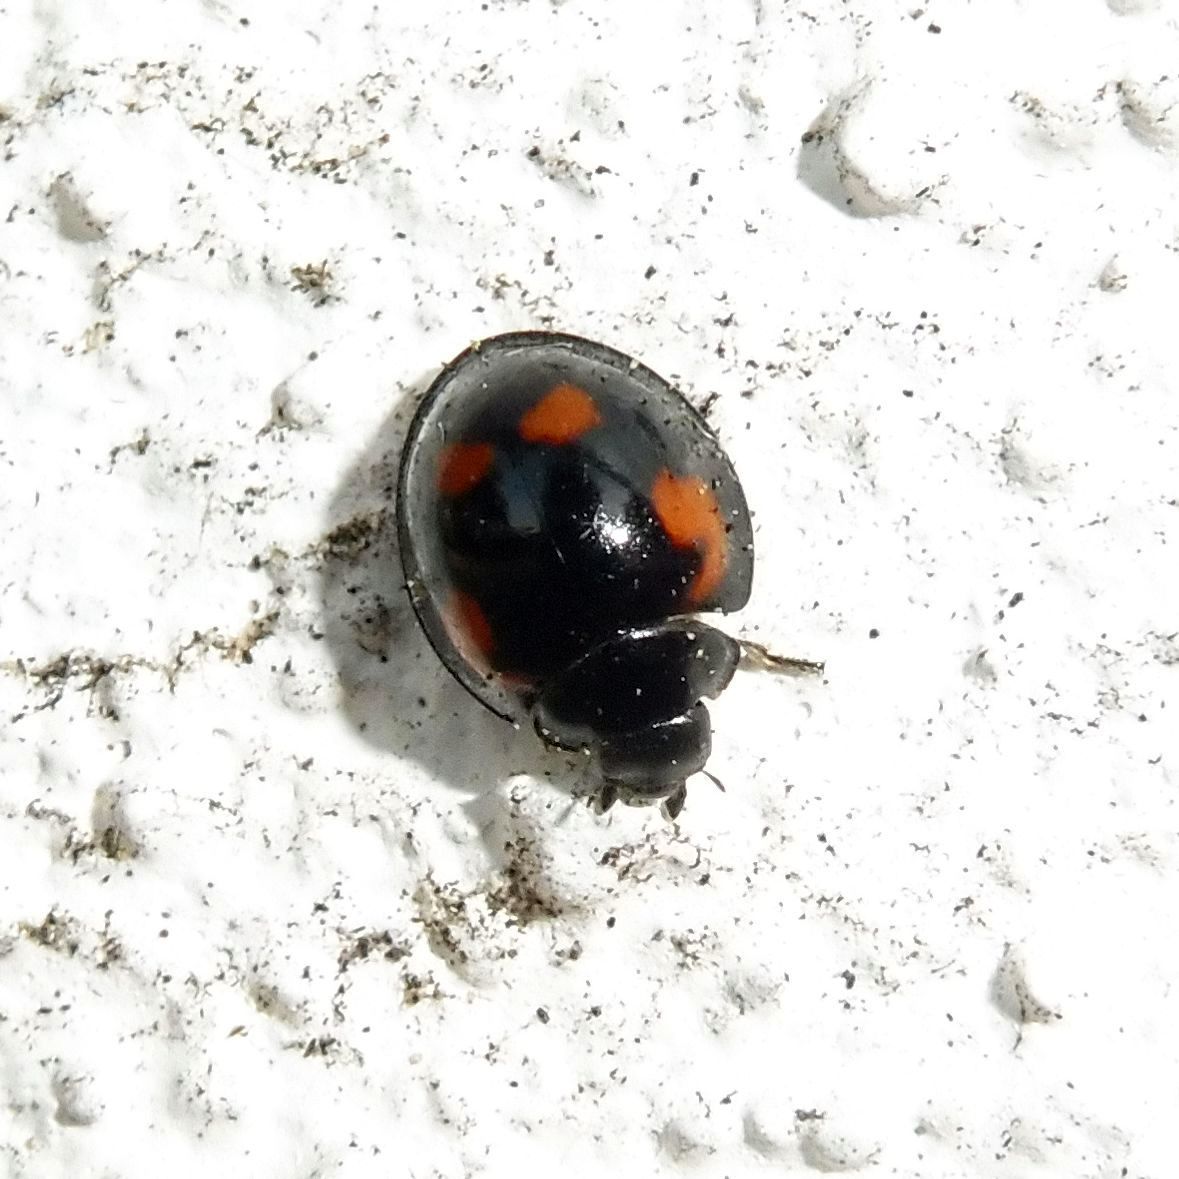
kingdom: Animalia
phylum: Arthropoda
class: Insecta
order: Coleoptera
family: Coccinellidae
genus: Brumus
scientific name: Brumus quadripustulatus
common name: Ladybird beetle
